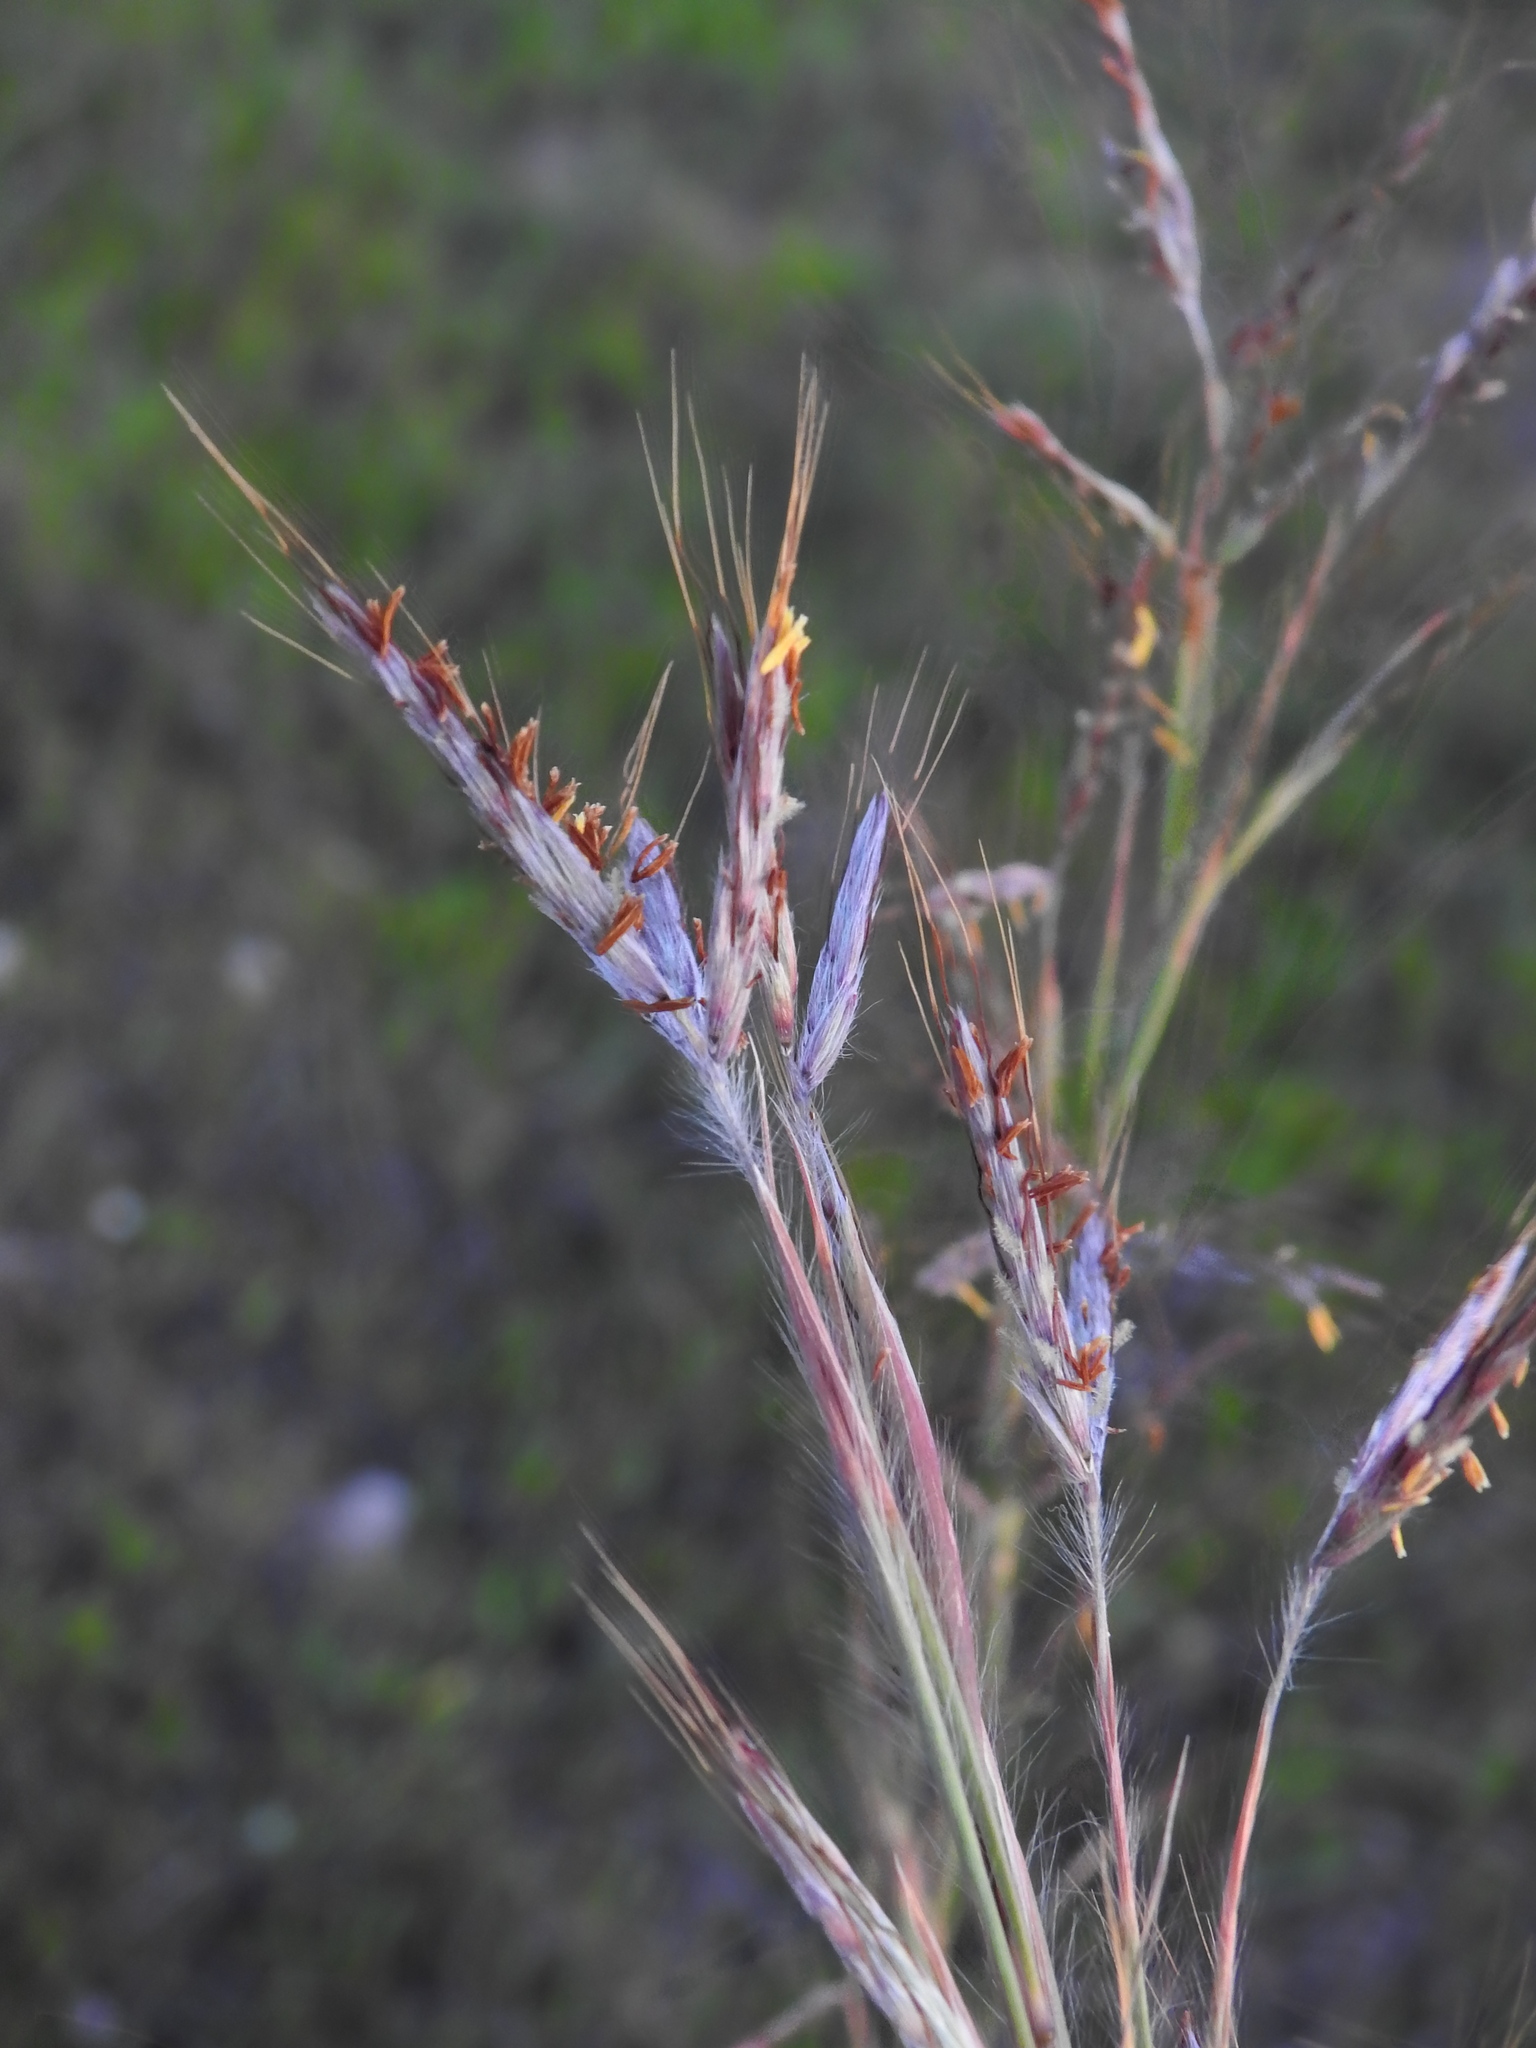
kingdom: Plantae
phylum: Tracheophyta
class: Liliopsida
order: Poales
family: Poaceae
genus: Hyparrhenia
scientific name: Hyparrhenia hirta
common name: Thatching grass
